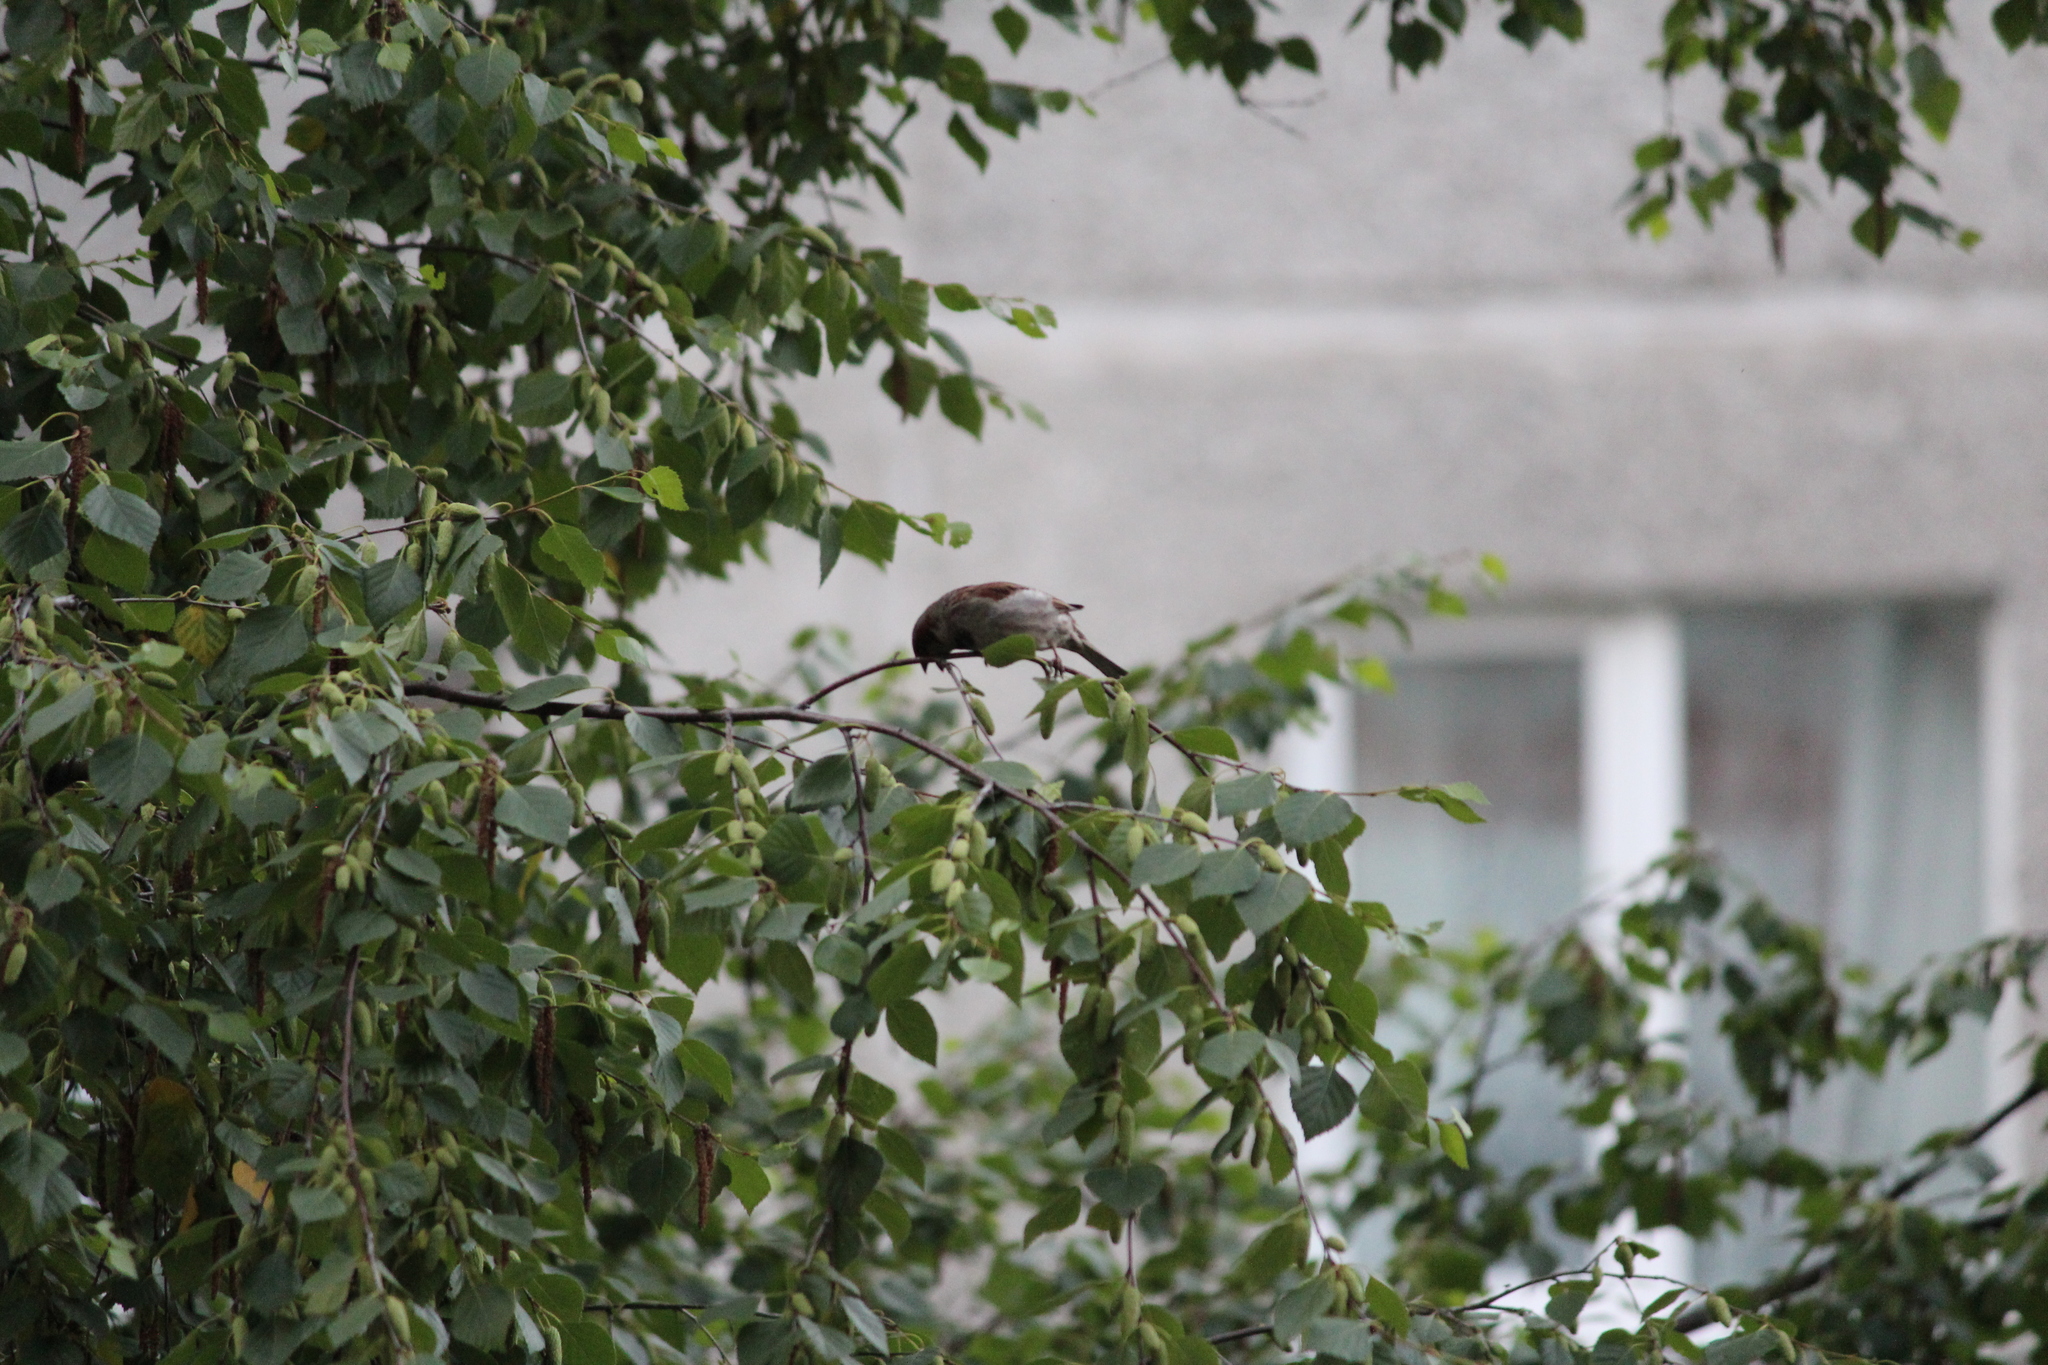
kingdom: Animalia
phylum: Chordata
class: Aves
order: Passeriformes
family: Passeridae
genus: Passer
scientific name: Passer domesticus
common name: House sparrow
